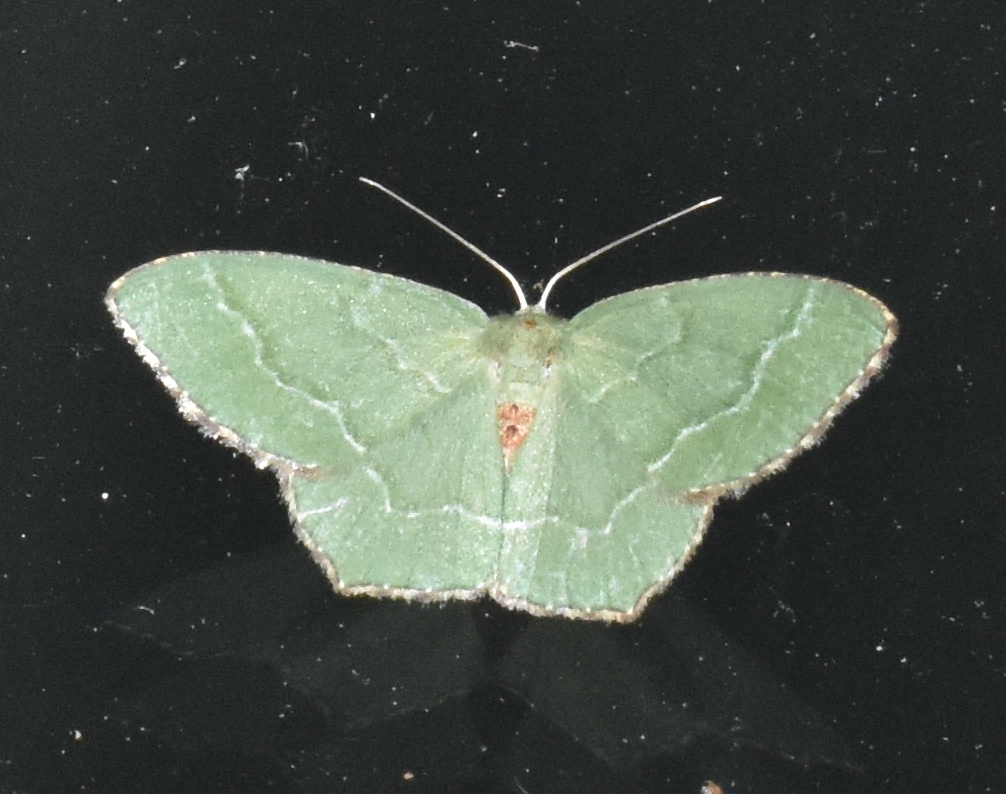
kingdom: Animalia
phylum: Arthropoda
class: Insecta
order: Lepidoptera
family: Geometridae
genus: Hemithea
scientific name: Hemithea aestivaria
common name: Common emerald
